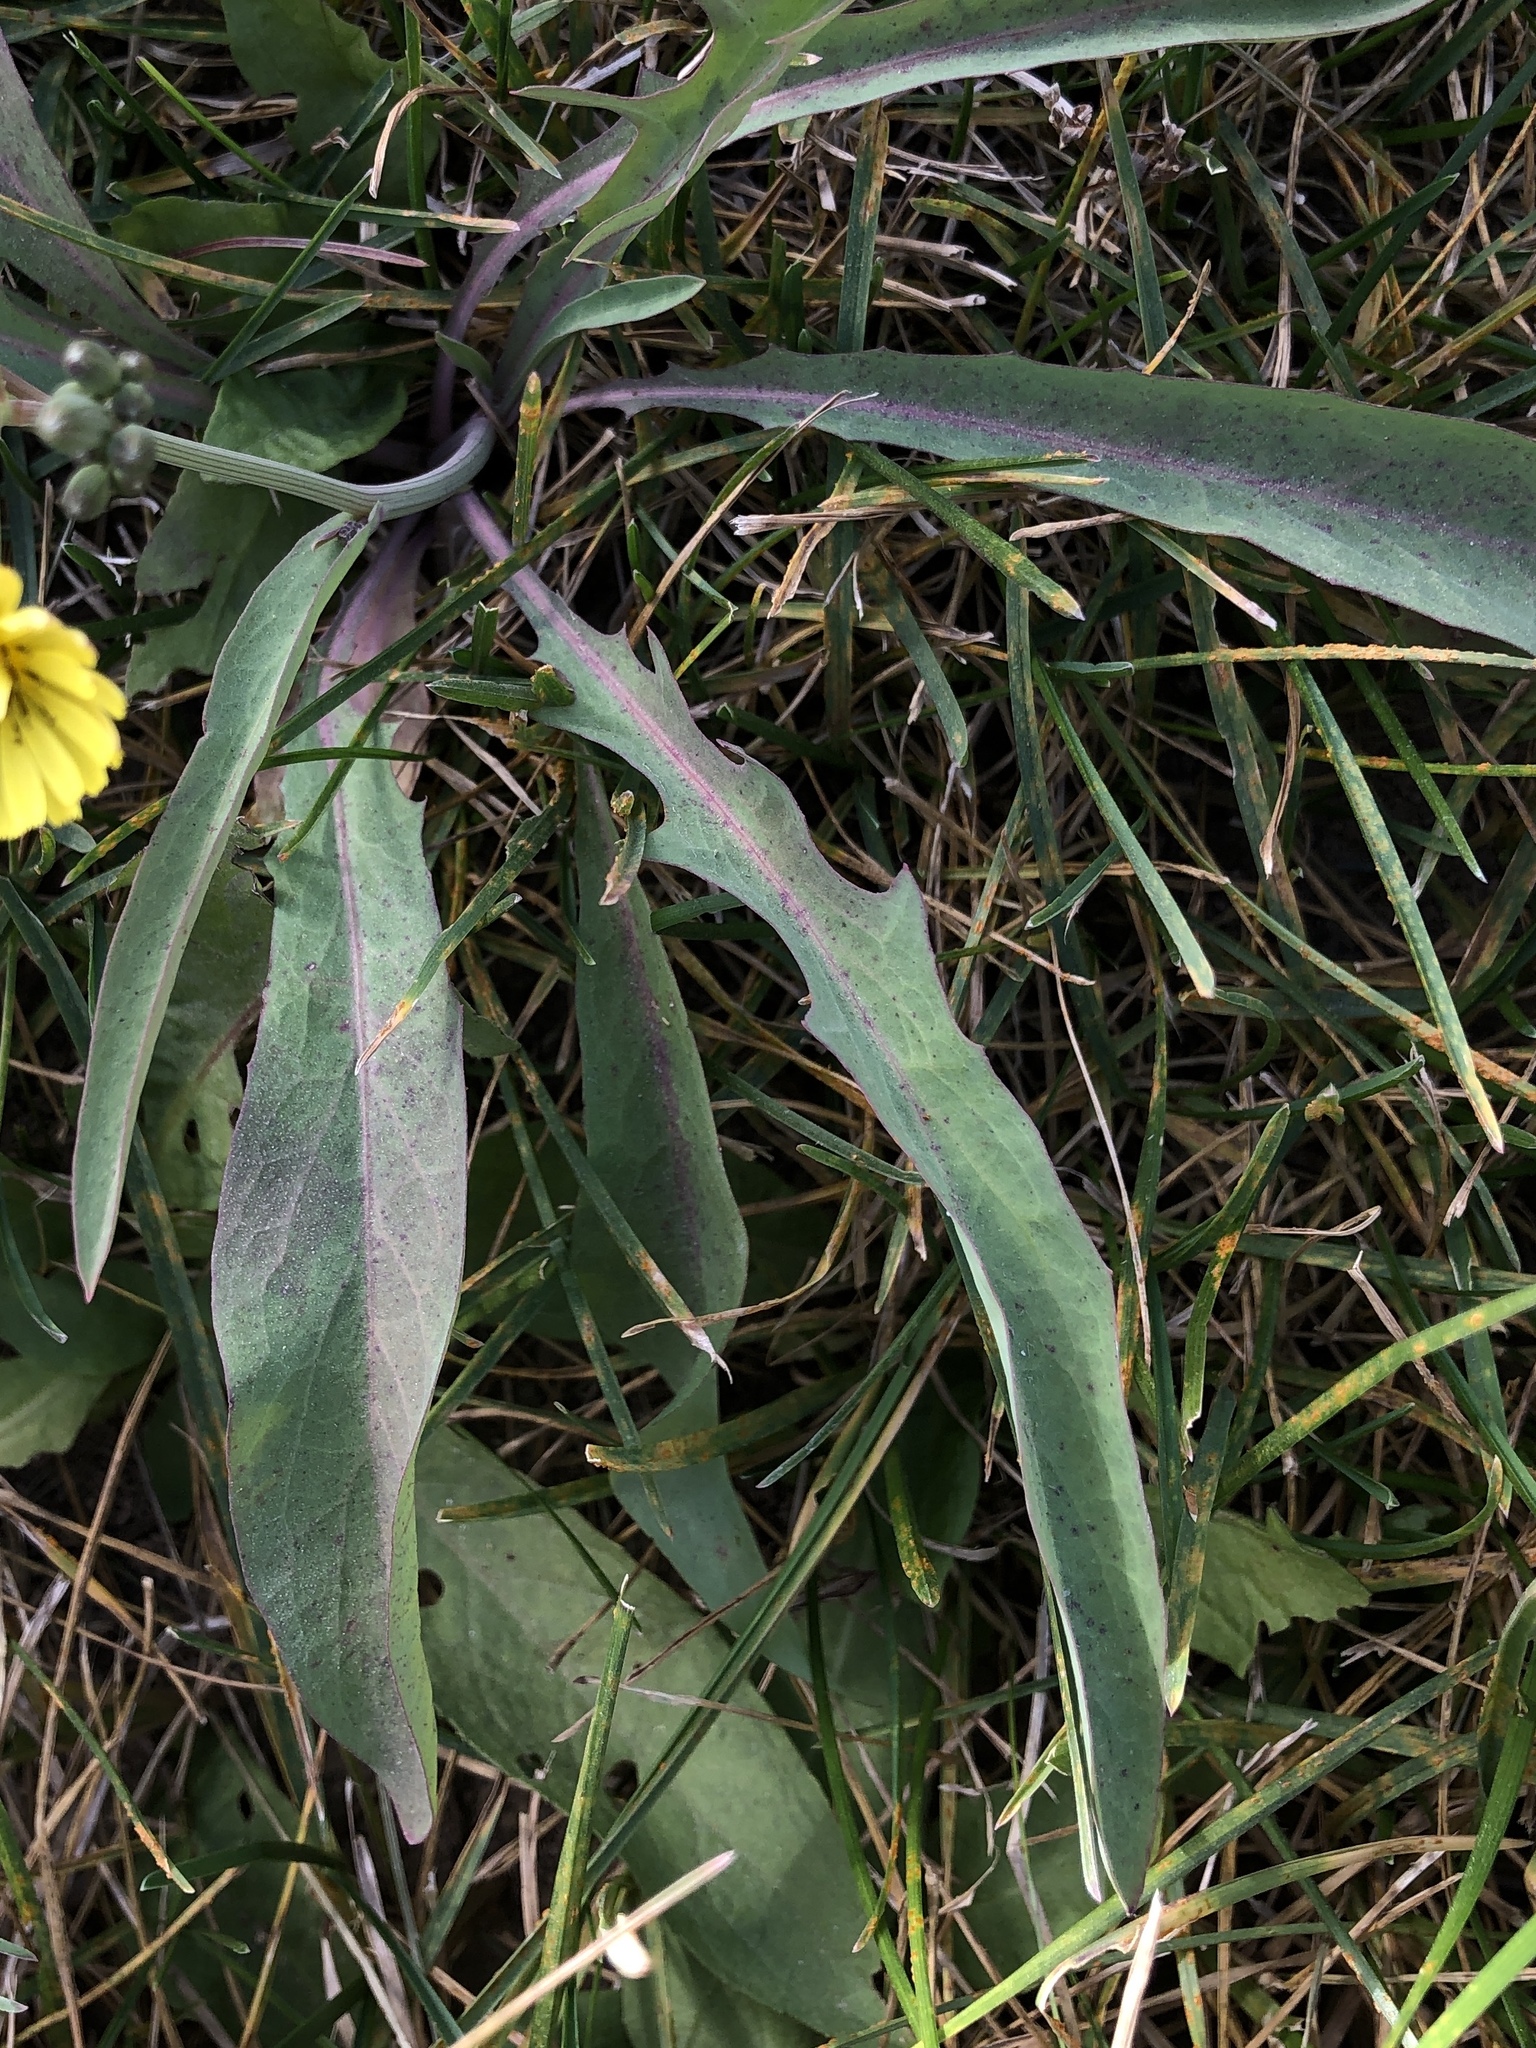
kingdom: Plantae
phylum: Tracheophyta
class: Magnoliopsida
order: Asterales
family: Asteraceae
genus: Ixeris
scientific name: Ixeris chinensis
